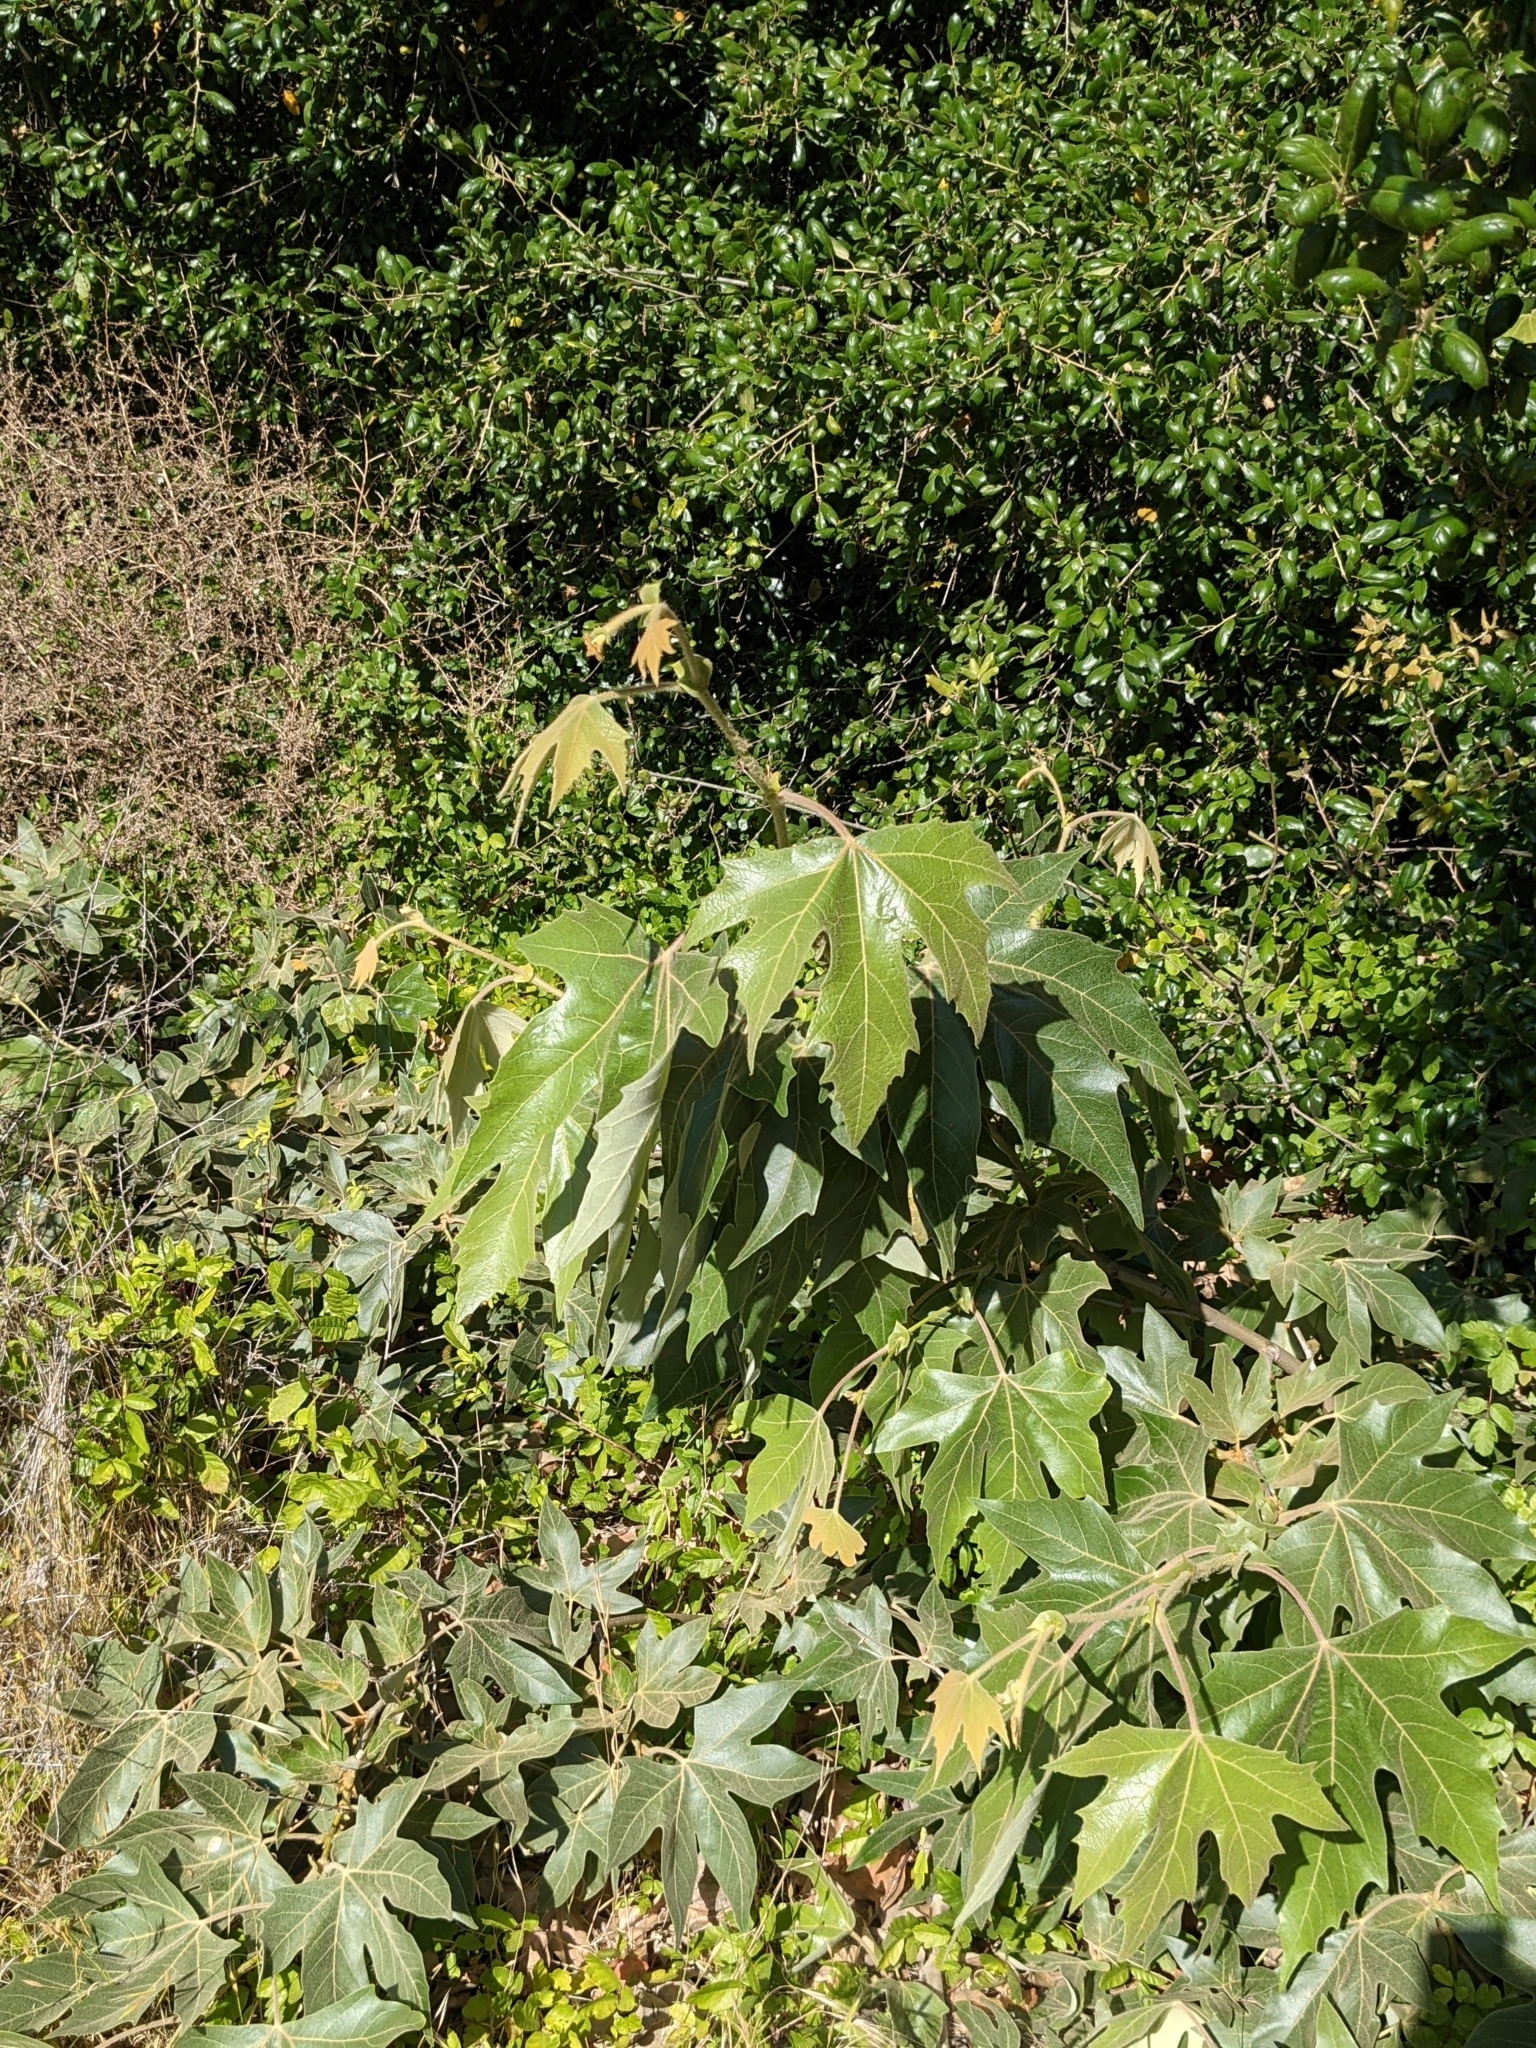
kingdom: Plantae
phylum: Tracheophyta
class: Magnoliopsida
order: Proteales
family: Platanaceae
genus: Platanus
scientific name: Platanus racemosa
